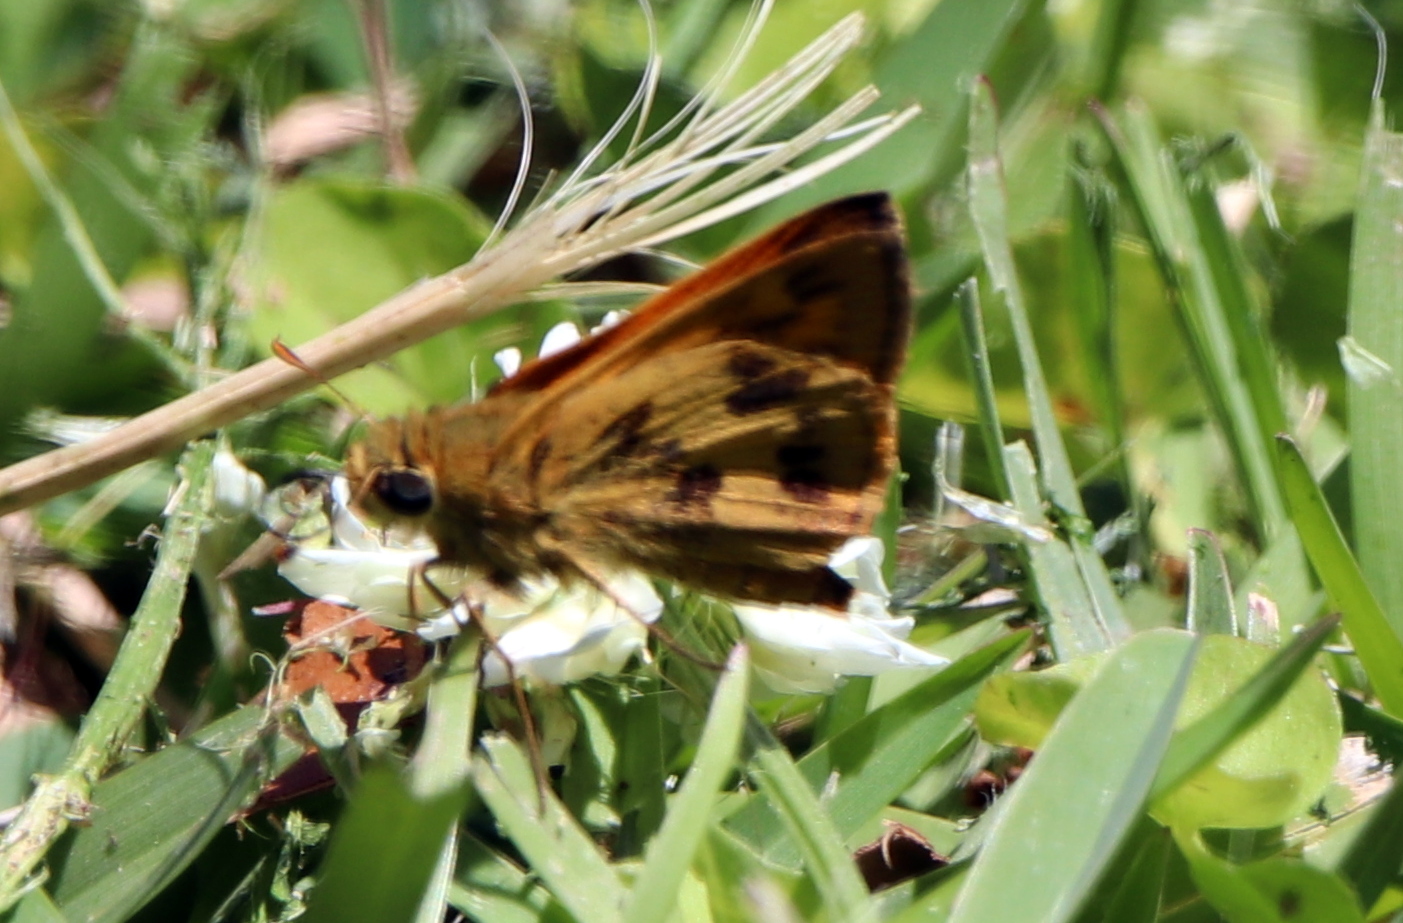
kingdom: Animalia
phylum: Arthropoda
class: Insecta
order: Lepidoptera
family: Hesperiidae
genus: Polites
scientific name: Polites vibex
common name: Whirlabout
